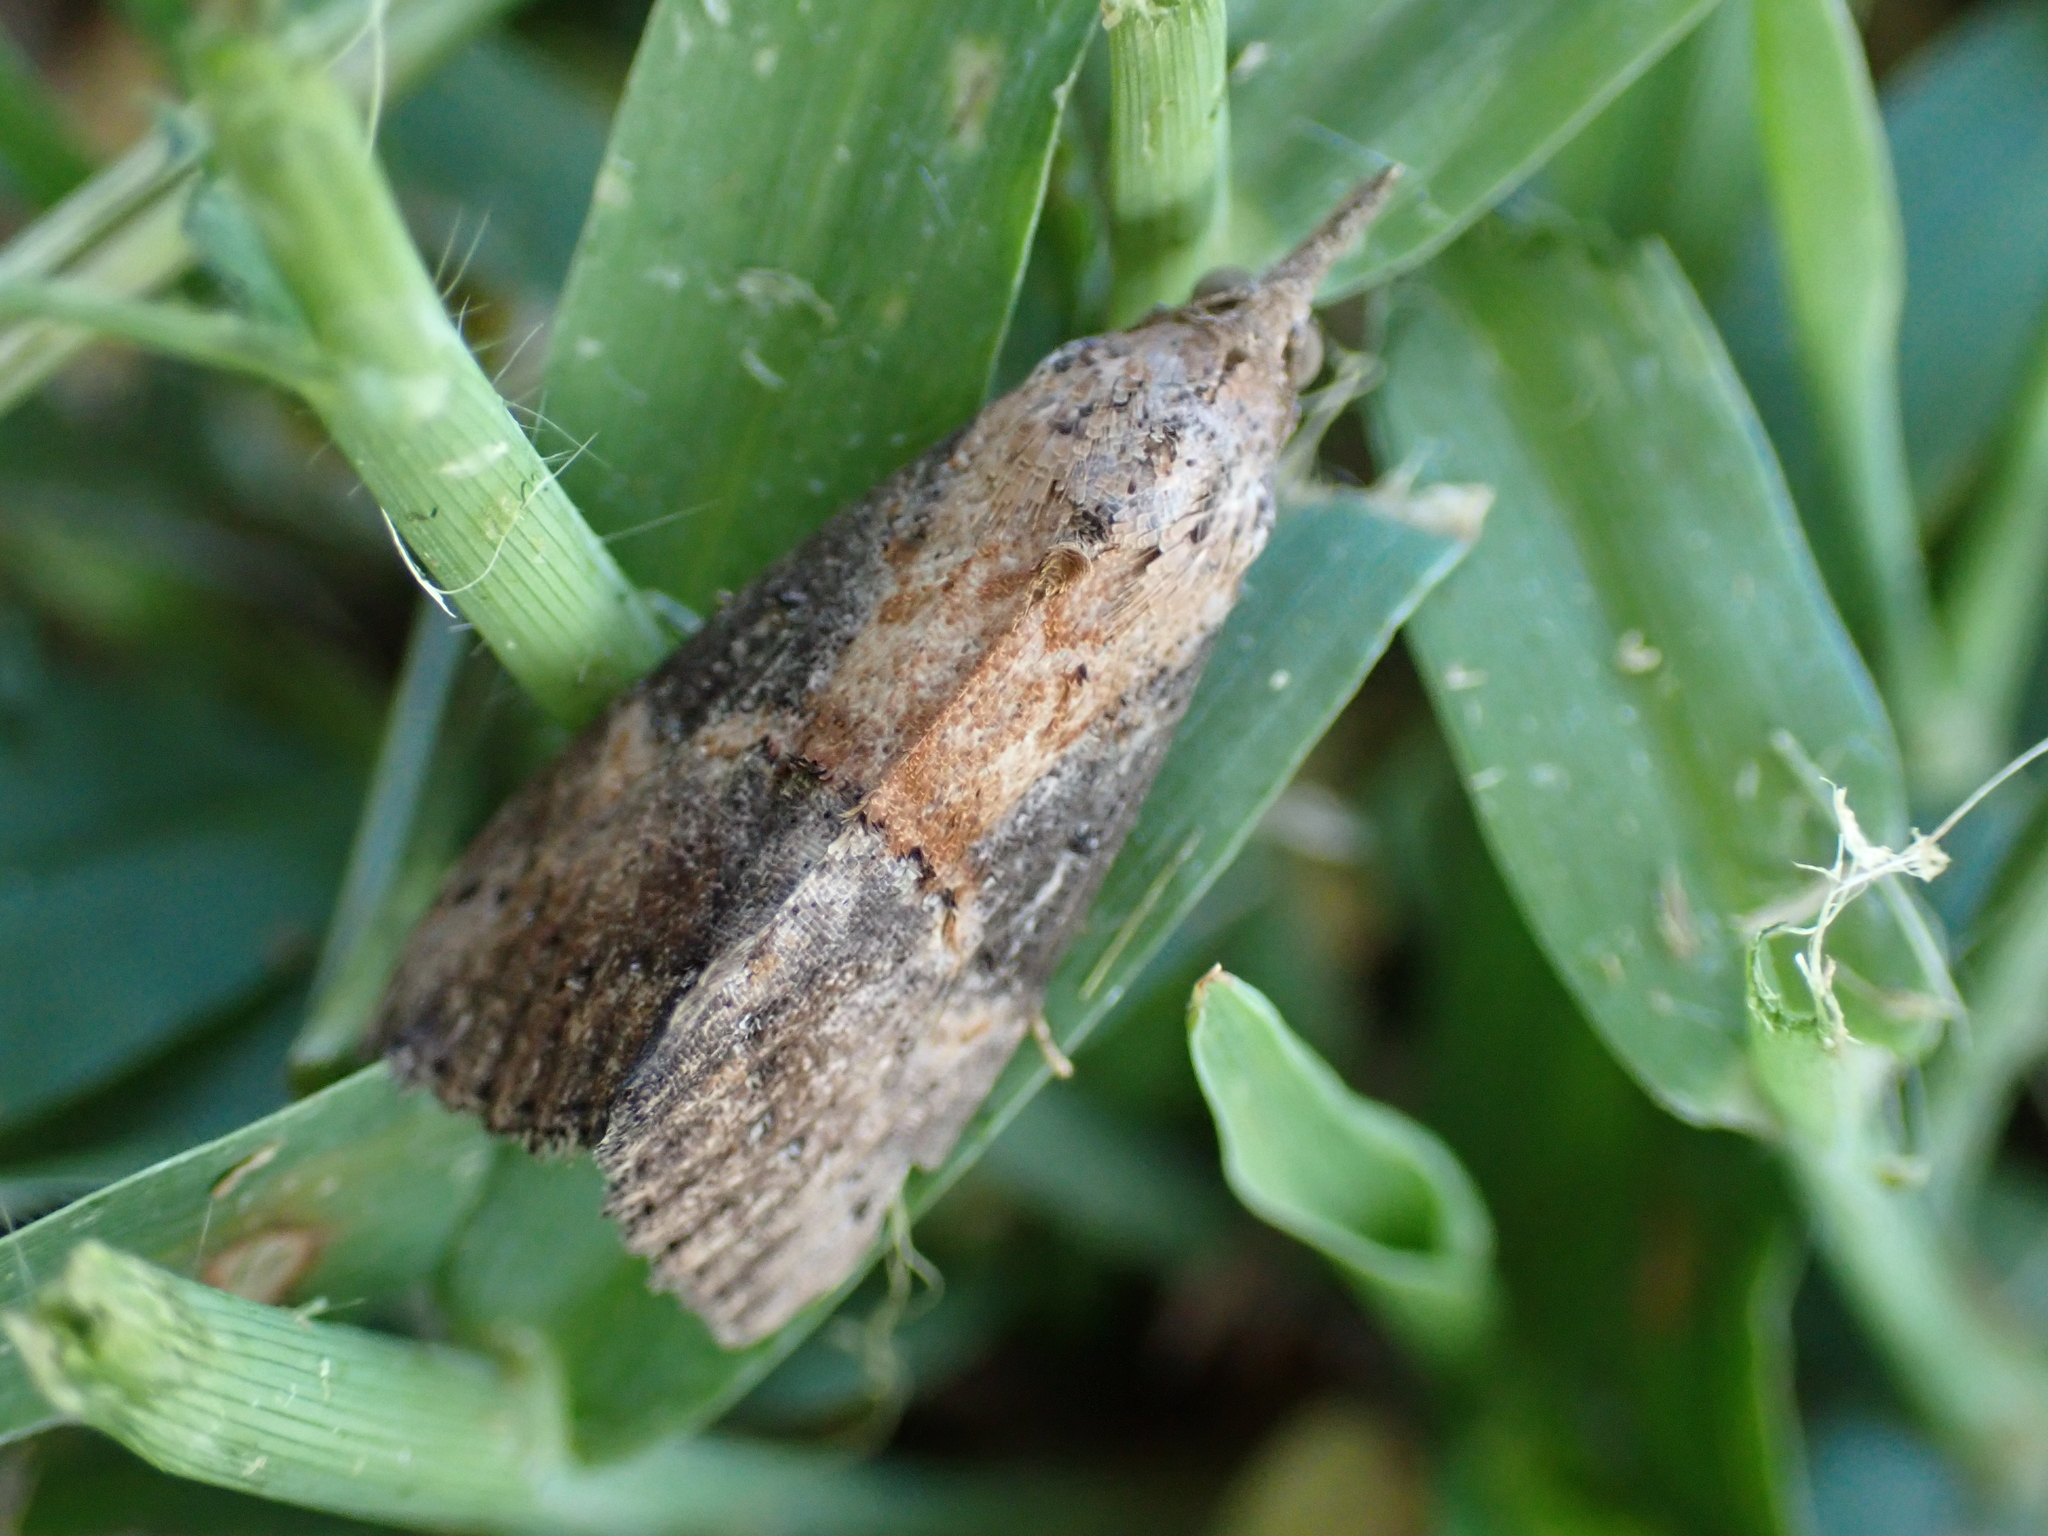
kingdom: Animalia
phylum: Arthropoda
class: Insecta
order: Lepidoptera
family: Erebidae
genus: Hypena
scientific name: Hypena scabra
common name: Green cloverworm
